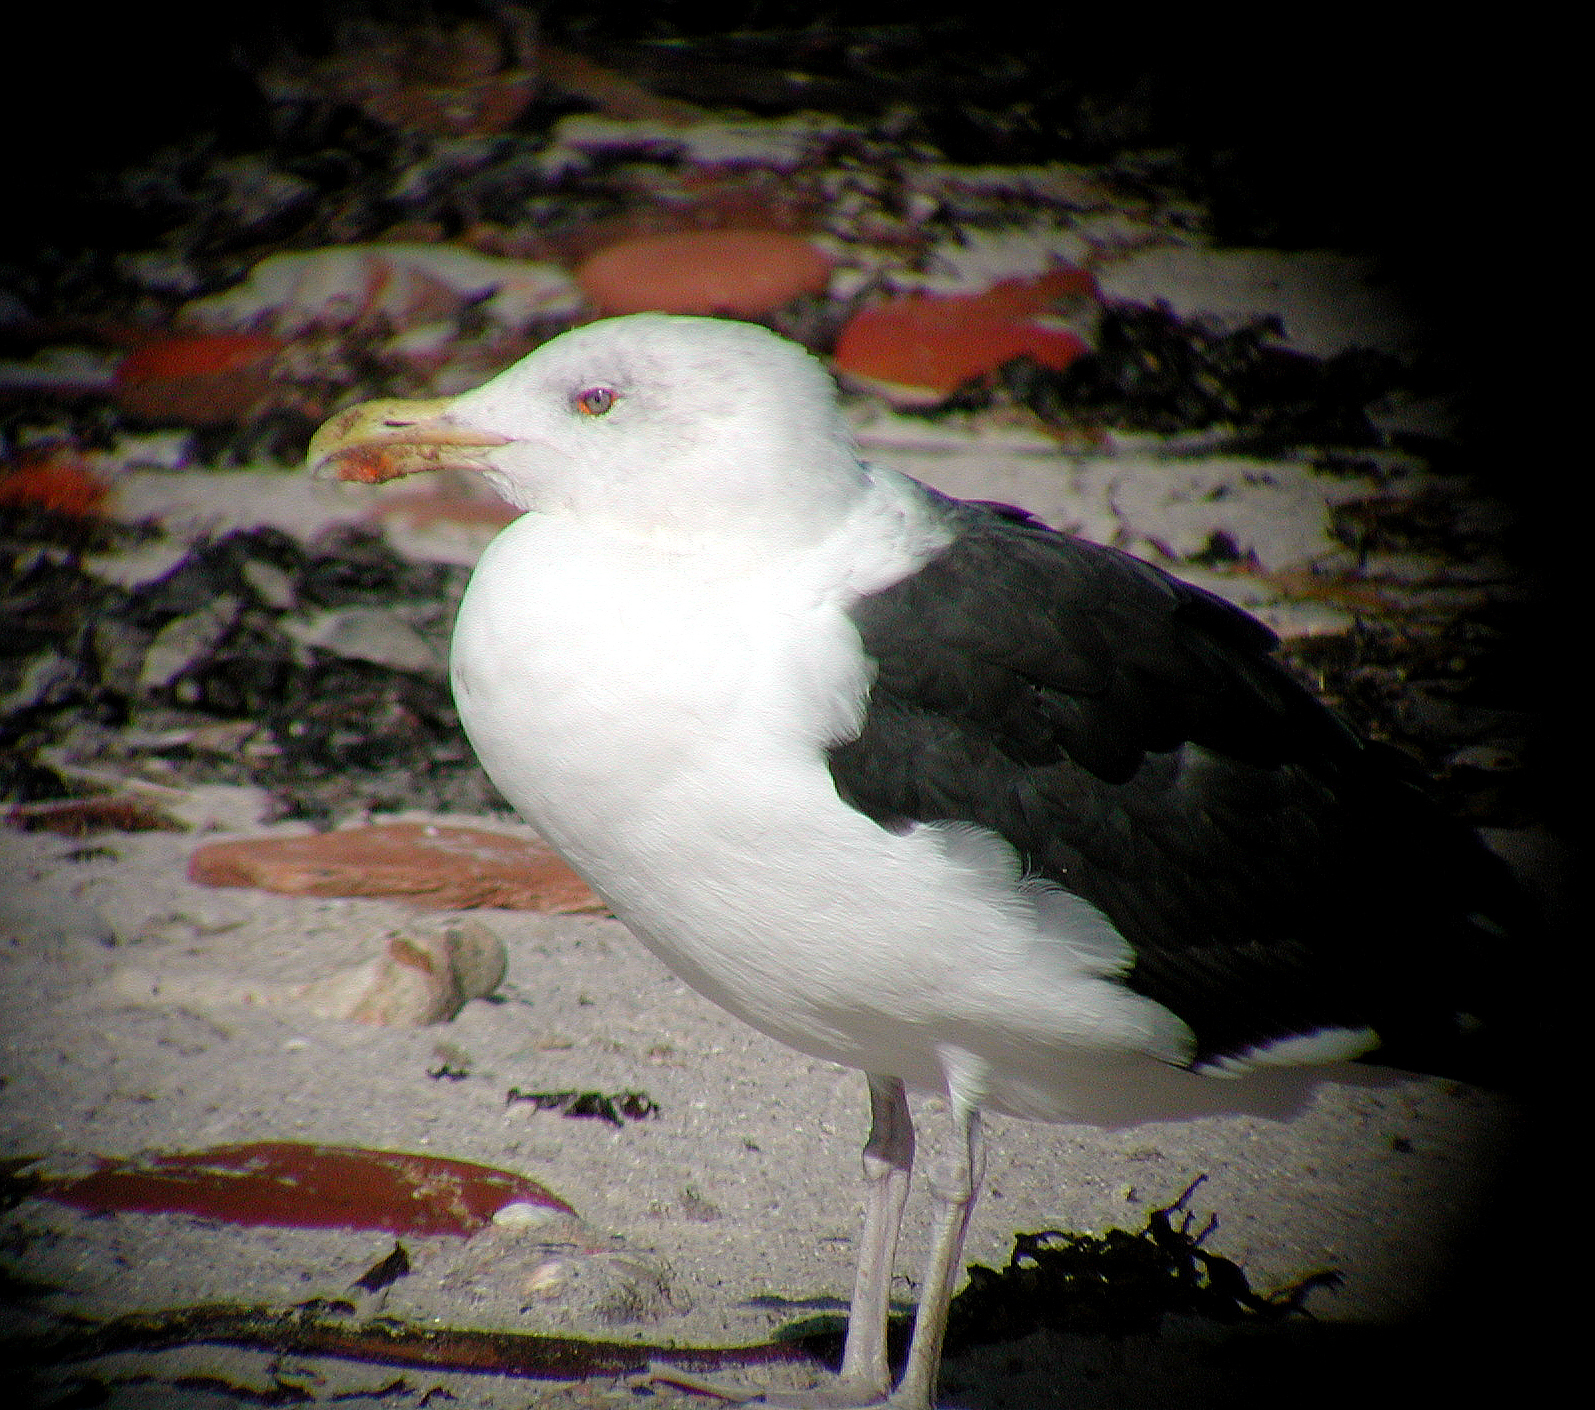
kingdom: Animalia
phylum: Chordata
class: Aves
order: Charadriiformes
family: Laridae
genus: Larus
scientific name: Larus marinus
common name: Great black-backed gull
